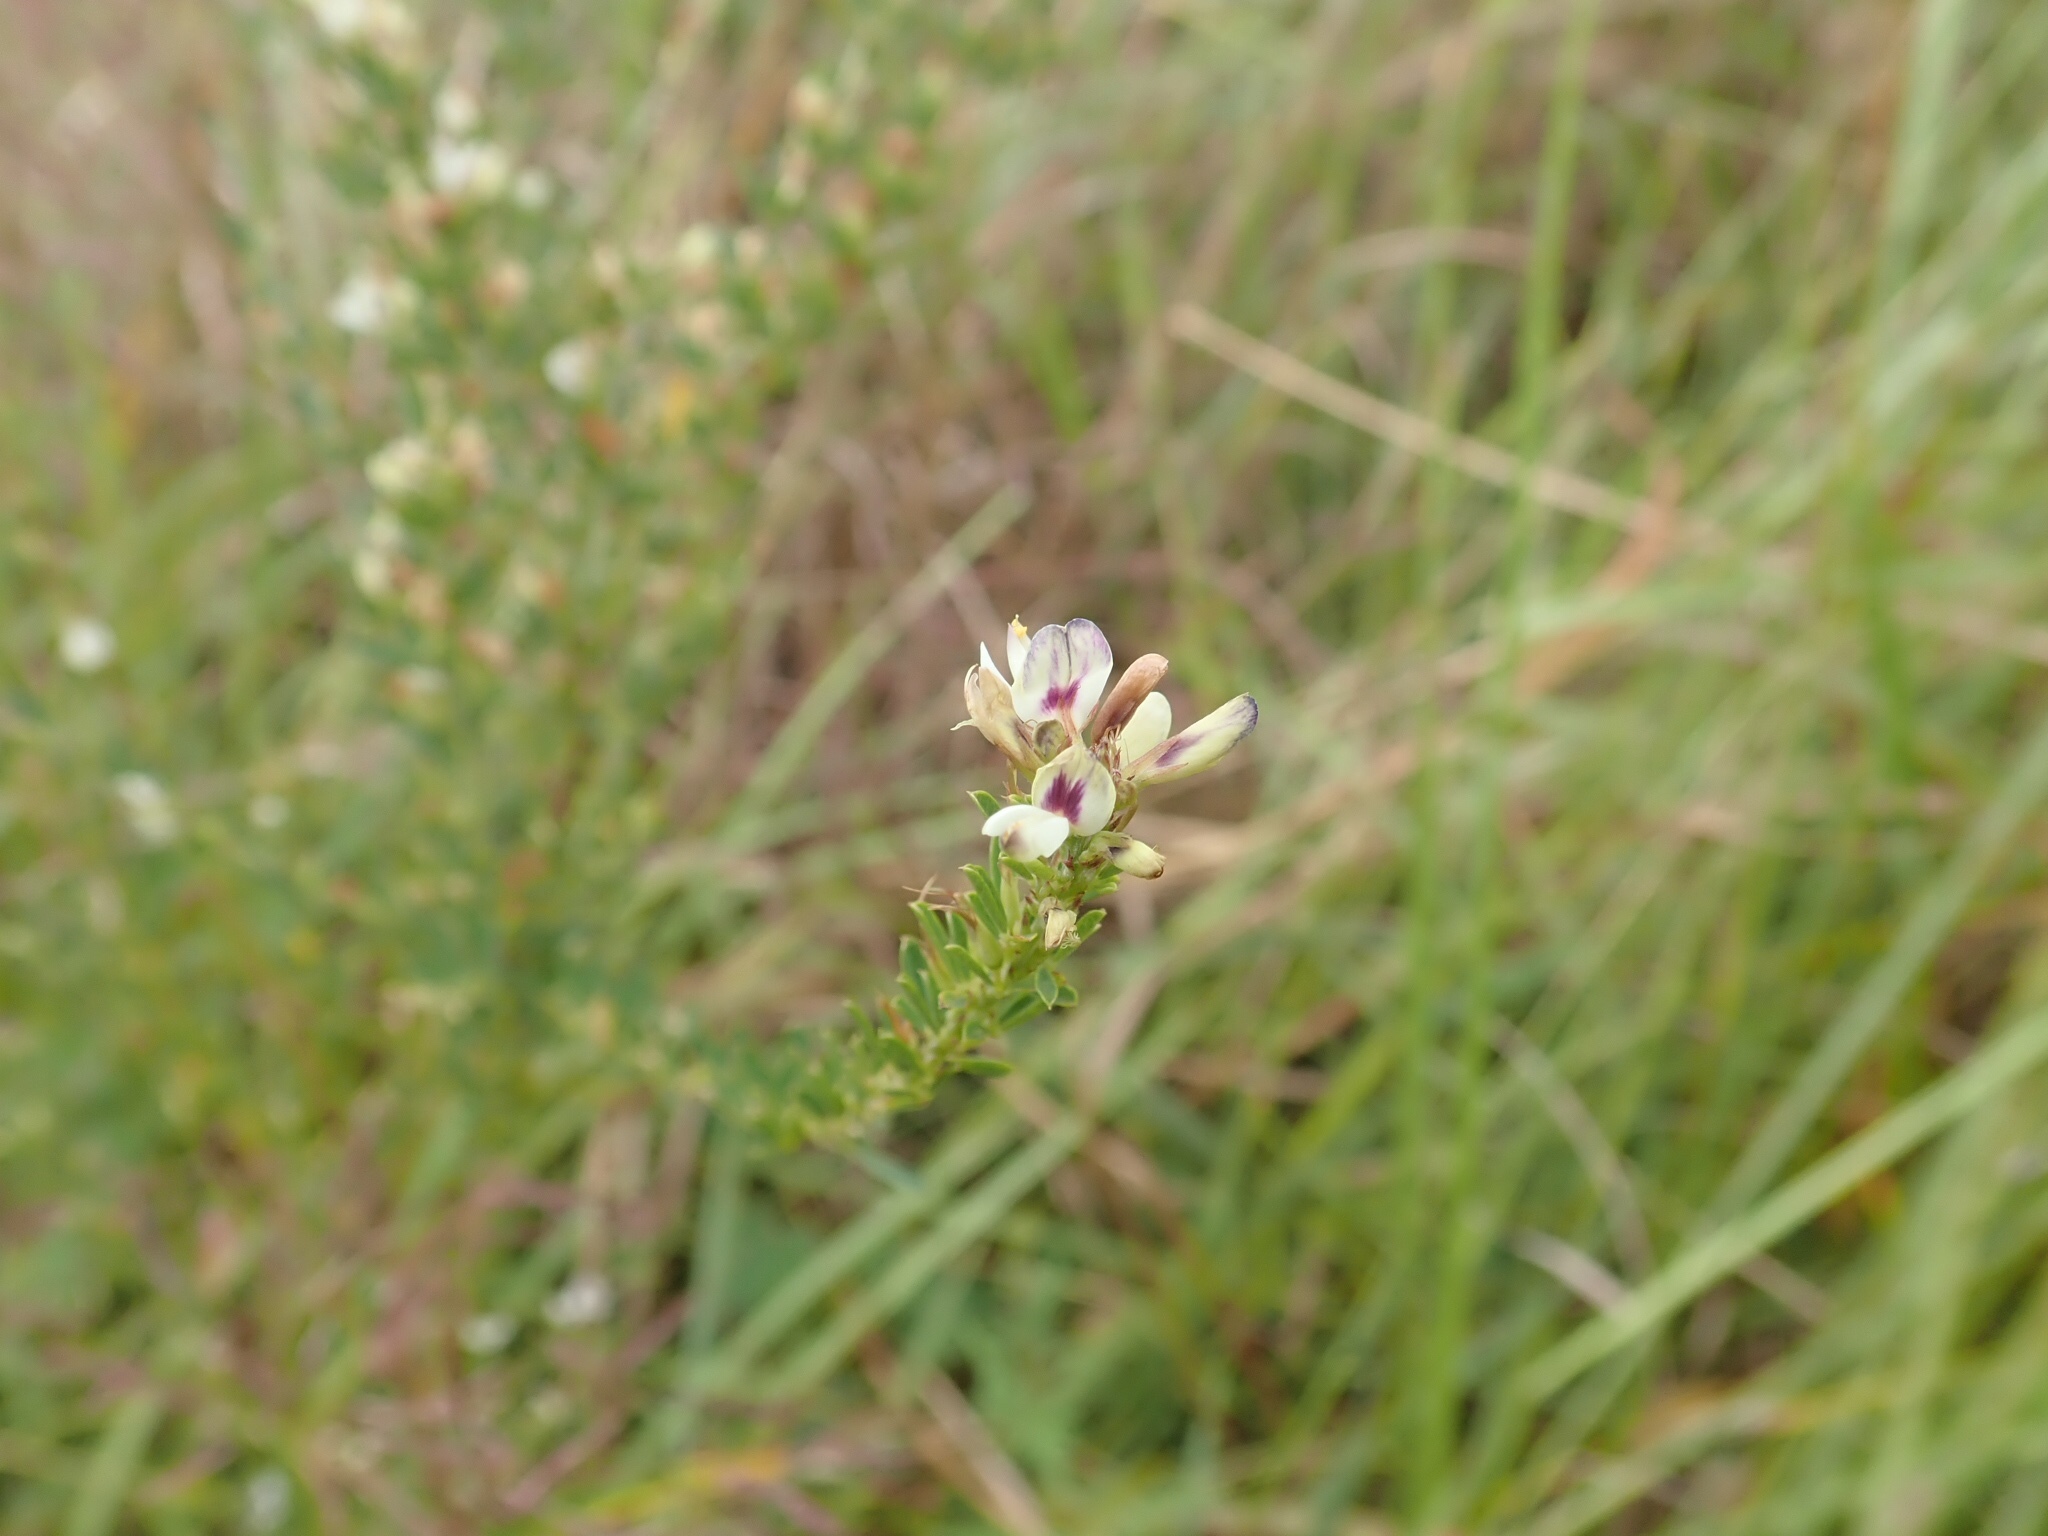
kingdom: Plantae
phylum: Tracheophyta
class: Magnoliopsida
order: Fabales
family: Fabaceae
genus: Lespedeza
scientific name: Lespedeza cuneata
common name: Chinese bush-clover
